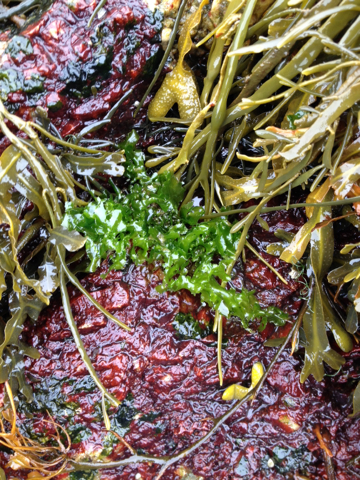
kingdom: Plantae
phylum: Chlorophyta
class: Ulvophyceae
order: Ulvales
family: Ulvaceae
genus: Ulva
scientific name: Ulva lactuca
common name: Sea lettuce
